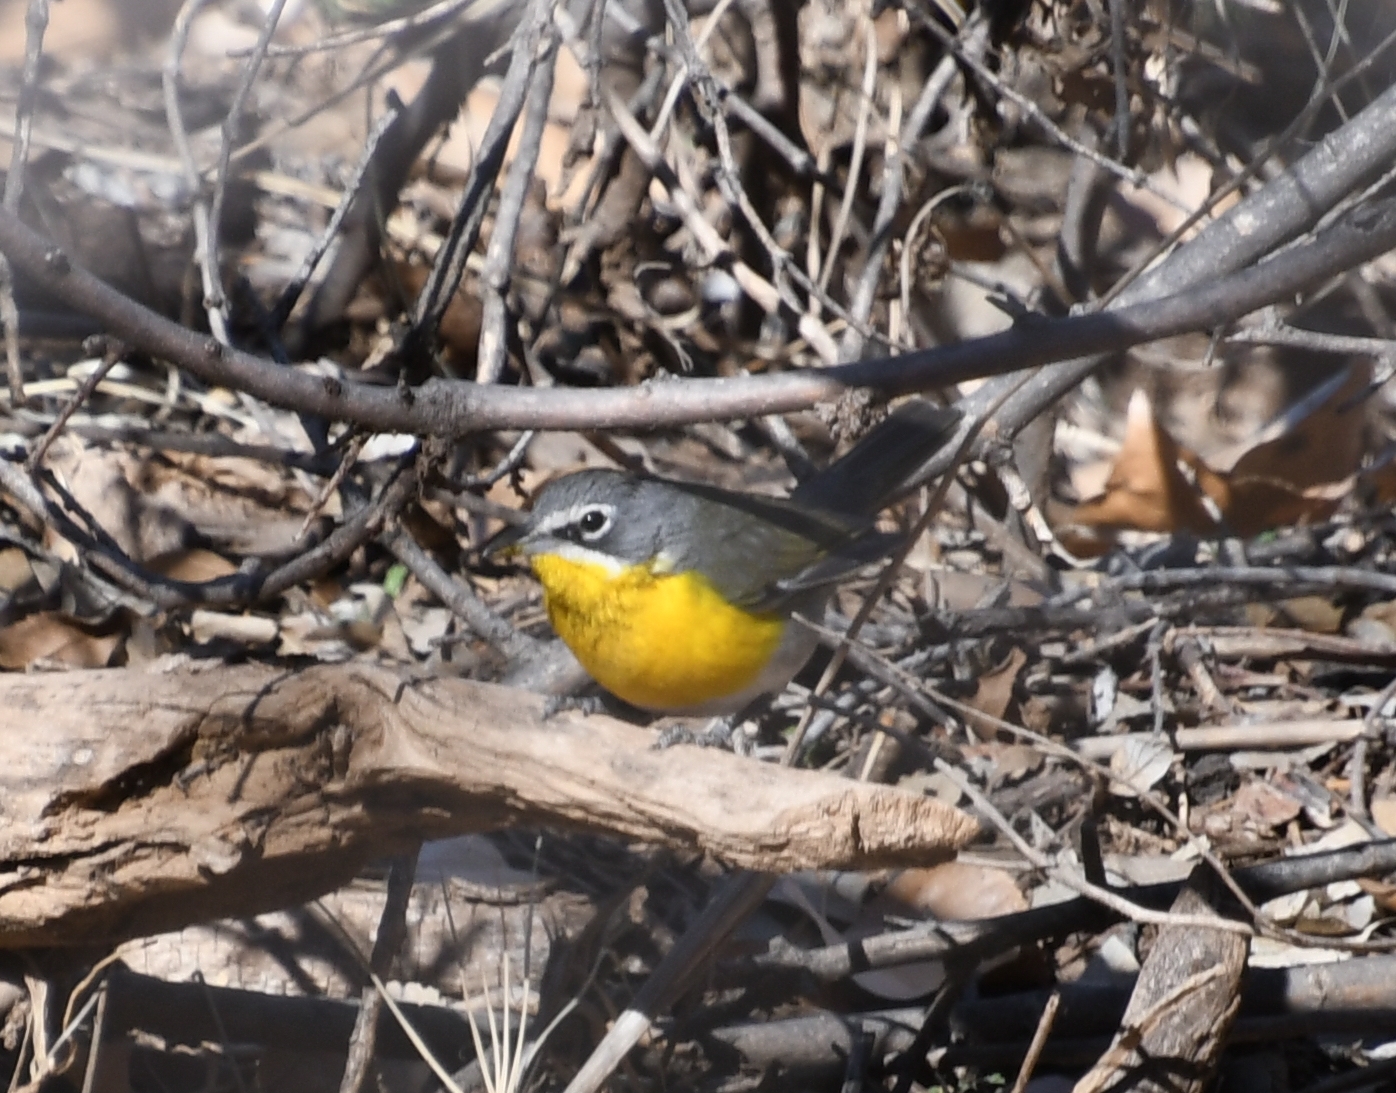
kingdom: Animalia
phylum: Chordata
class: Aves
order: Passeriformes
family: Parulidae
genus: Icteria
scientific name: Icteria virens
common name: Yellow-breasted chat
